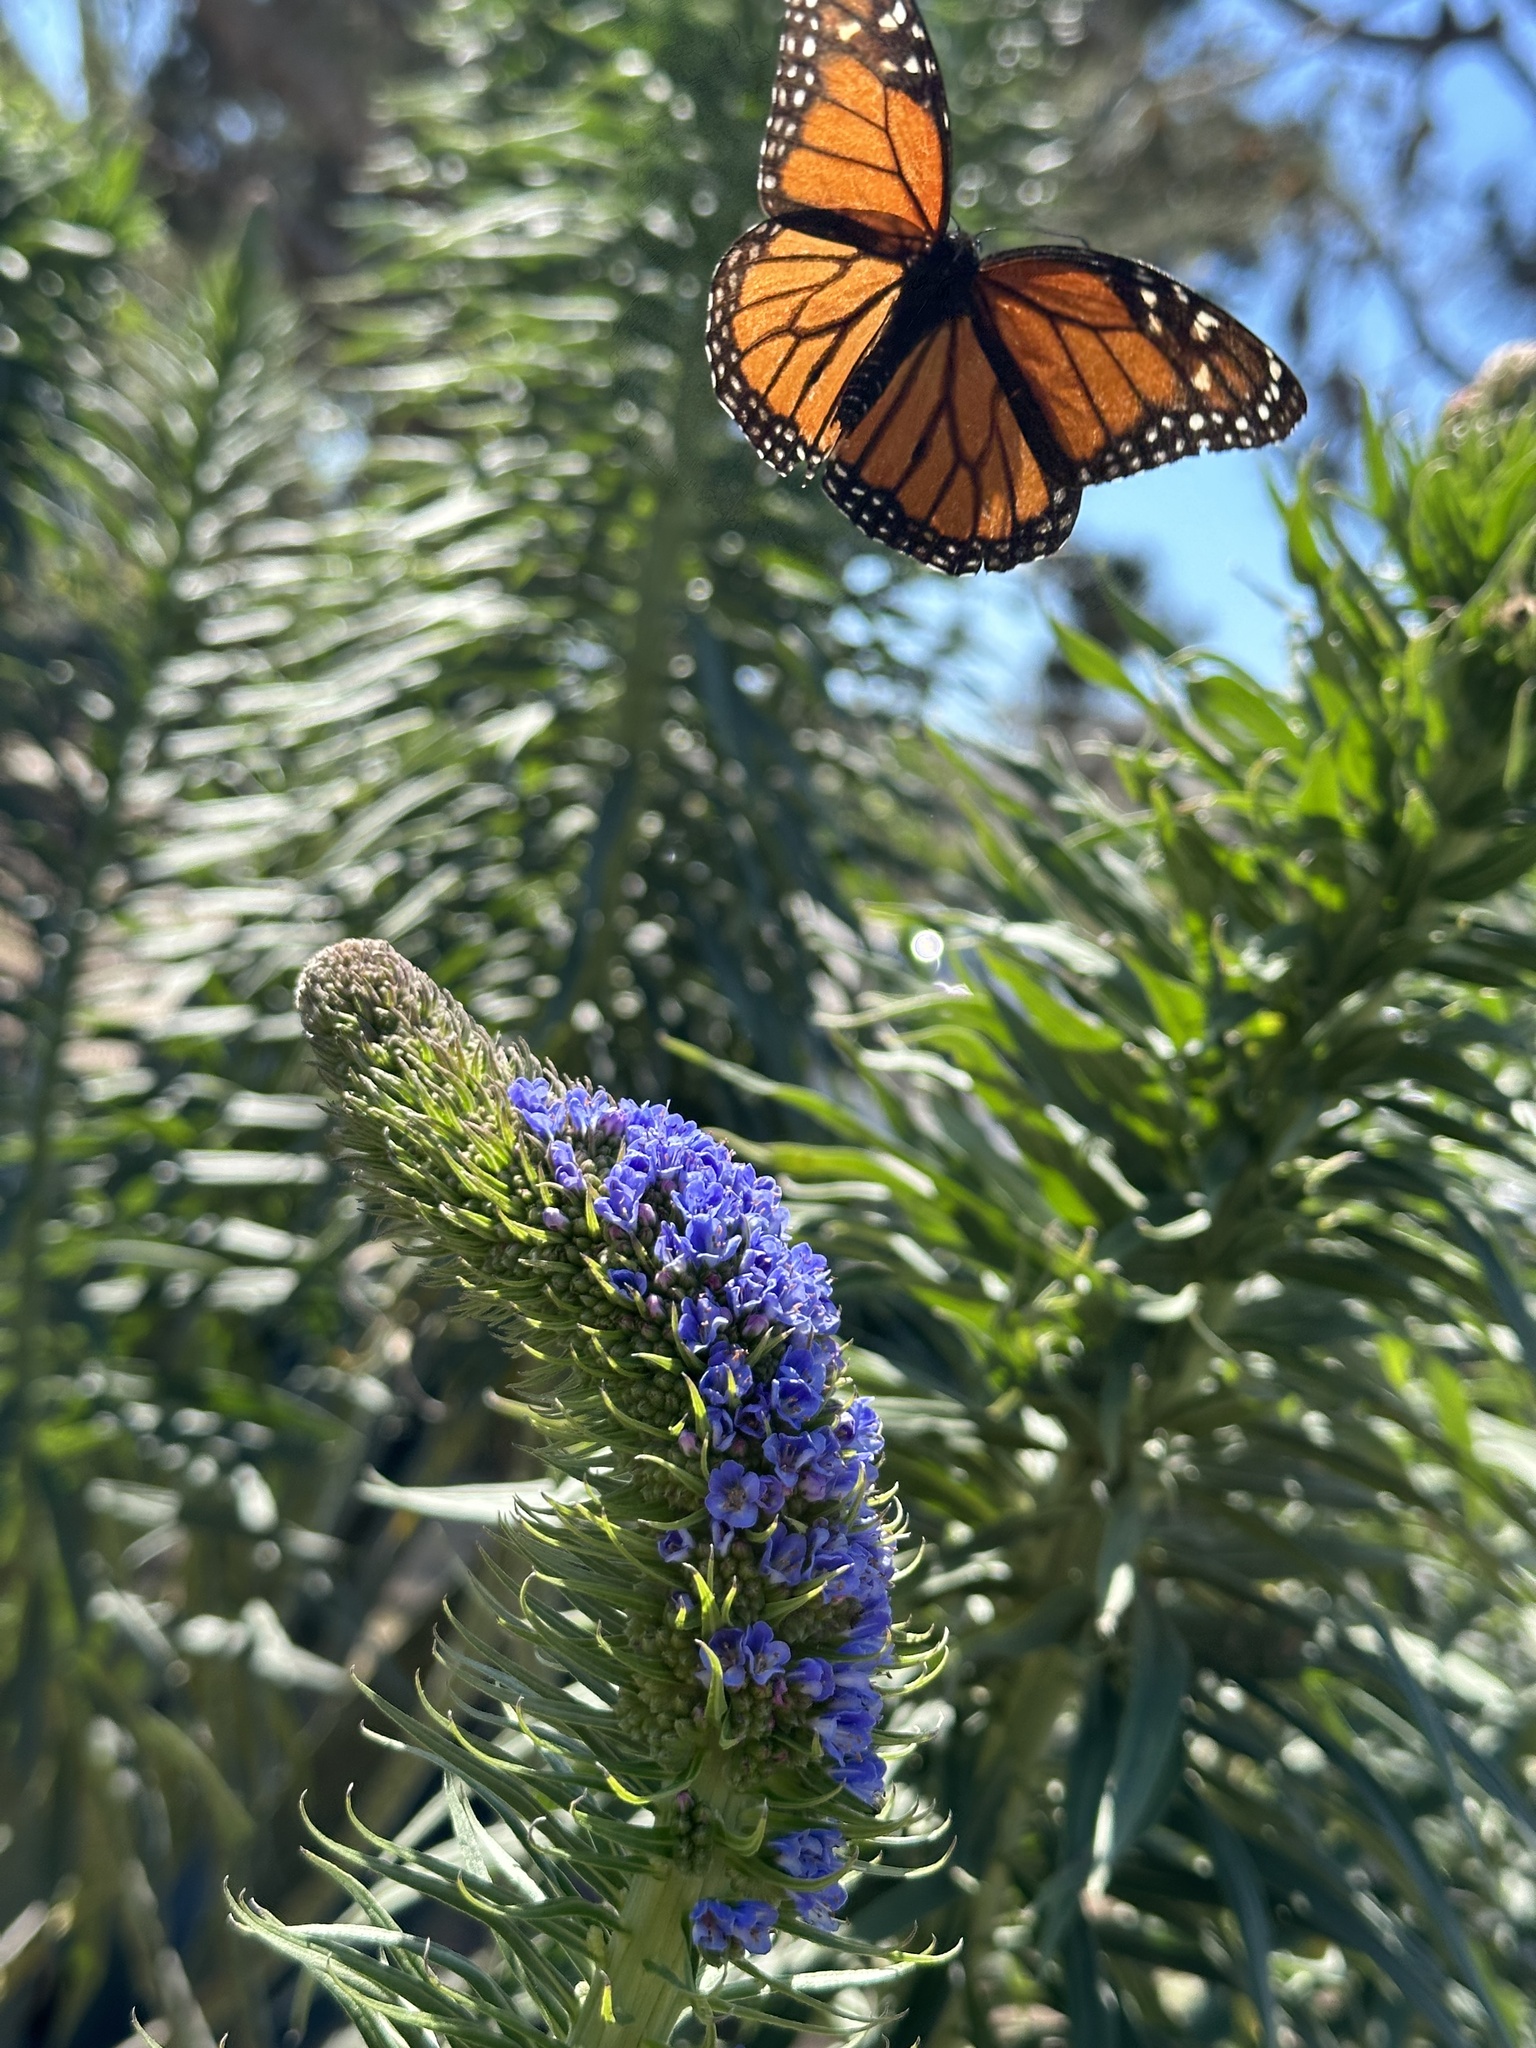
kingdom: Animalia
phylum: Arthropoda
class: Insecta
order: Lepidoptera
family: Nymphalidae
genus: Danaus
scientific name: Danaus plexippus
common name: Monarch
